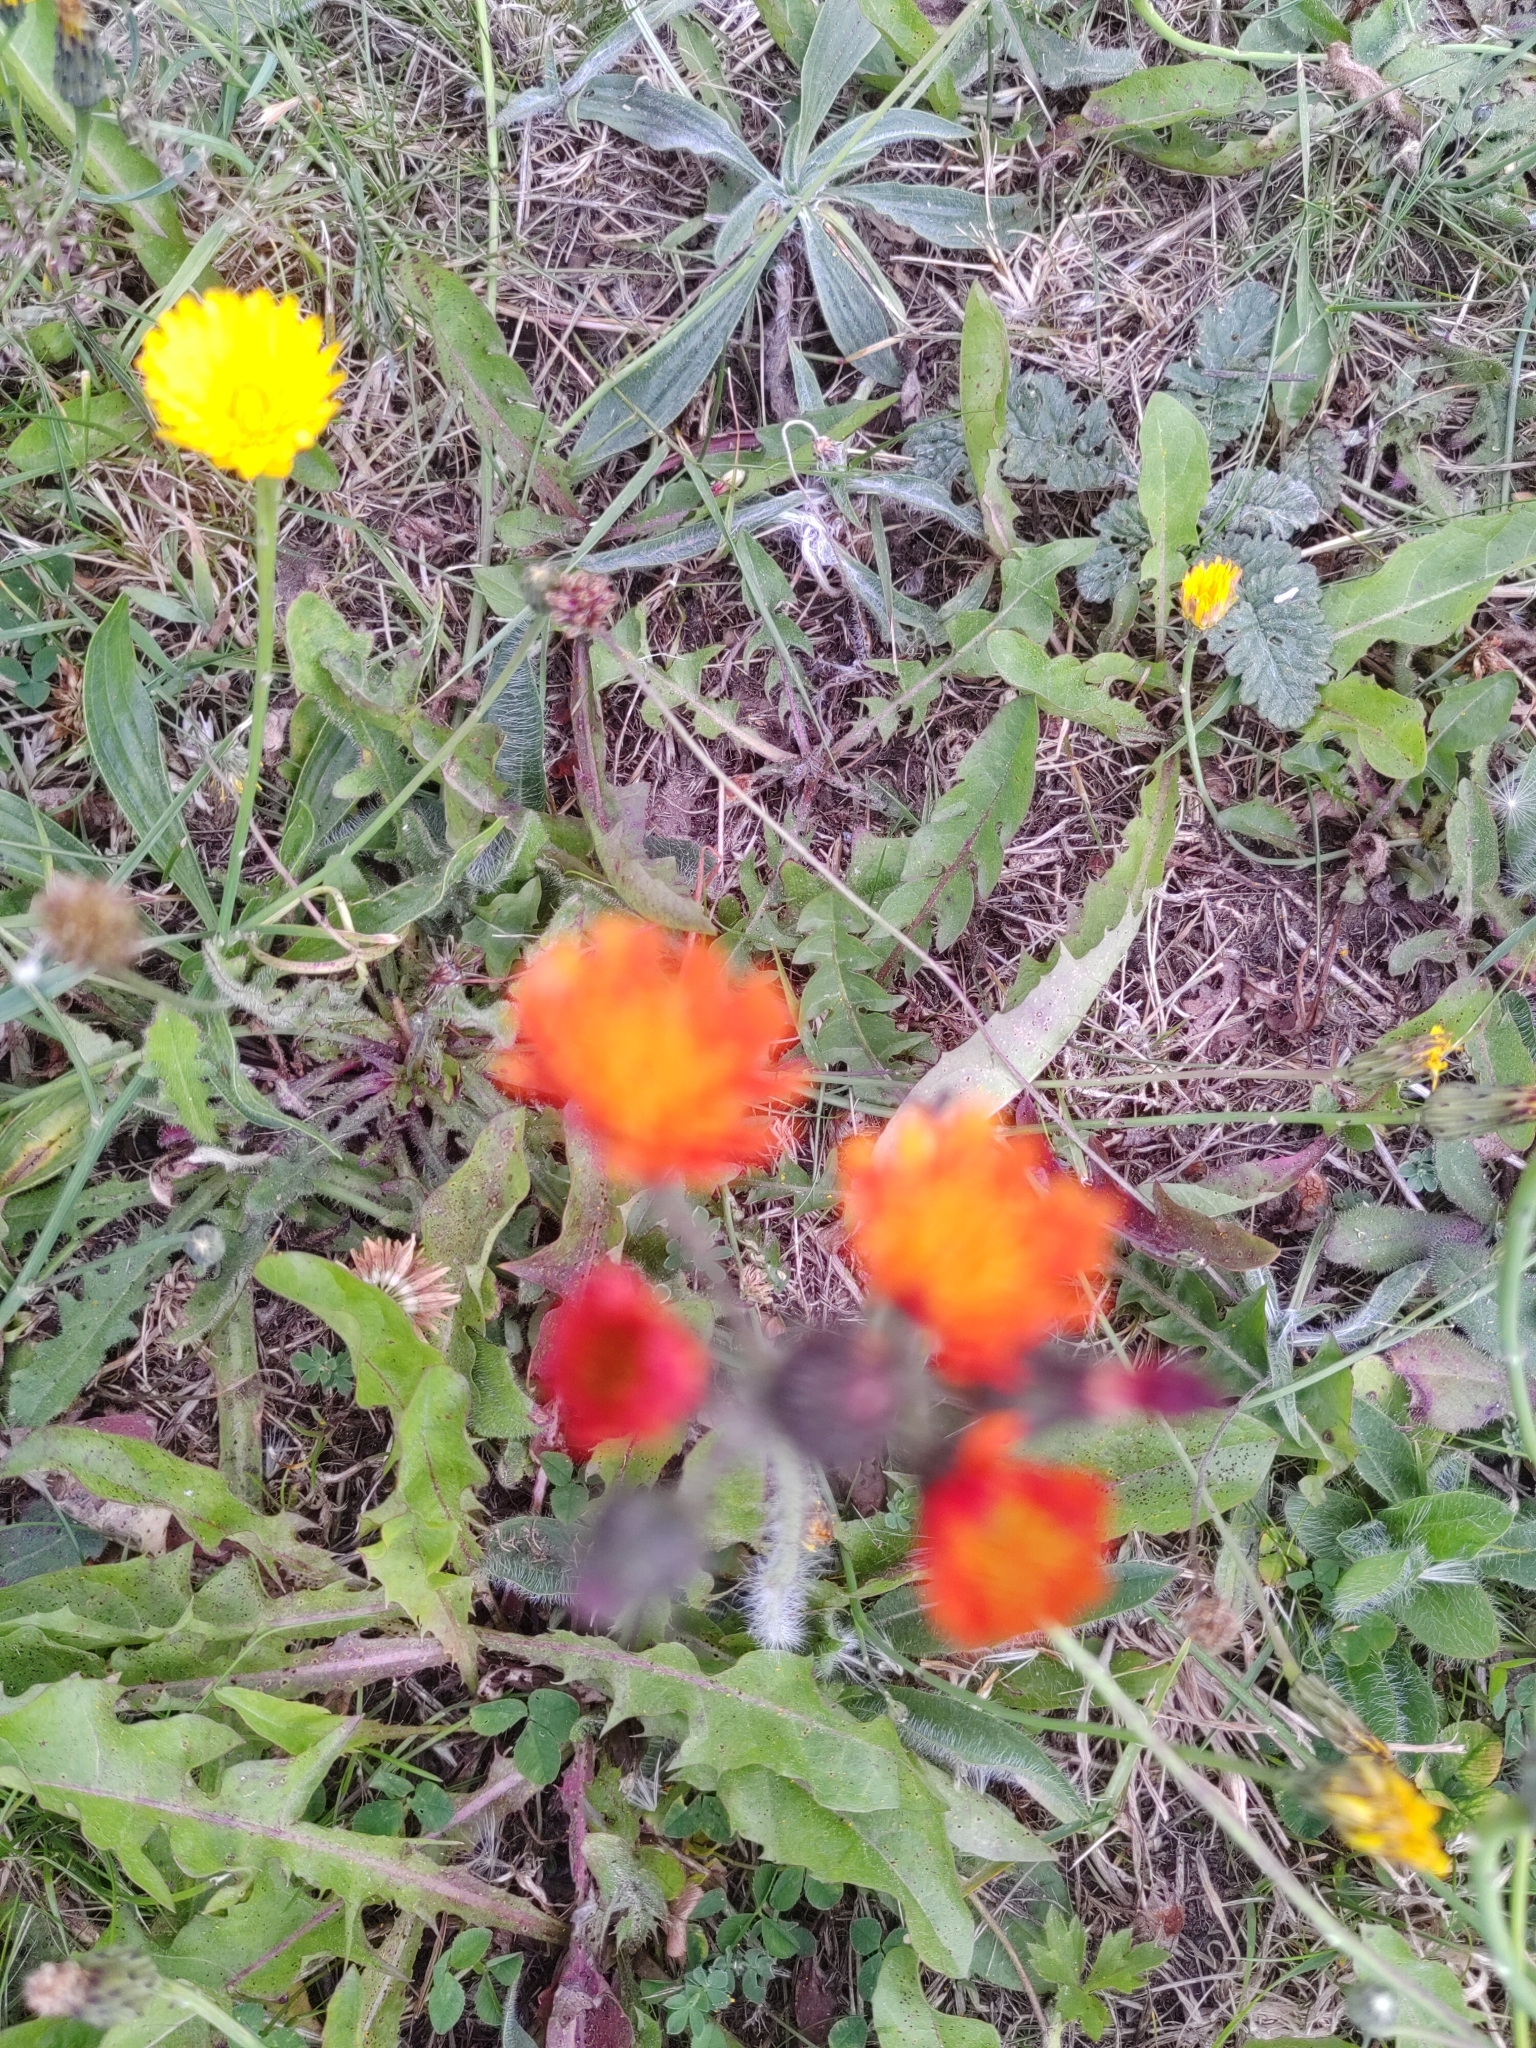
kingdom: Plantae
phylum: Tracheophyta
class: Magnoliopsida
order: Asterales
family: Asteraceae
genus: Pilosella
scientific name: Pilosella aurantiaca
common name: Fox-and-cubs
